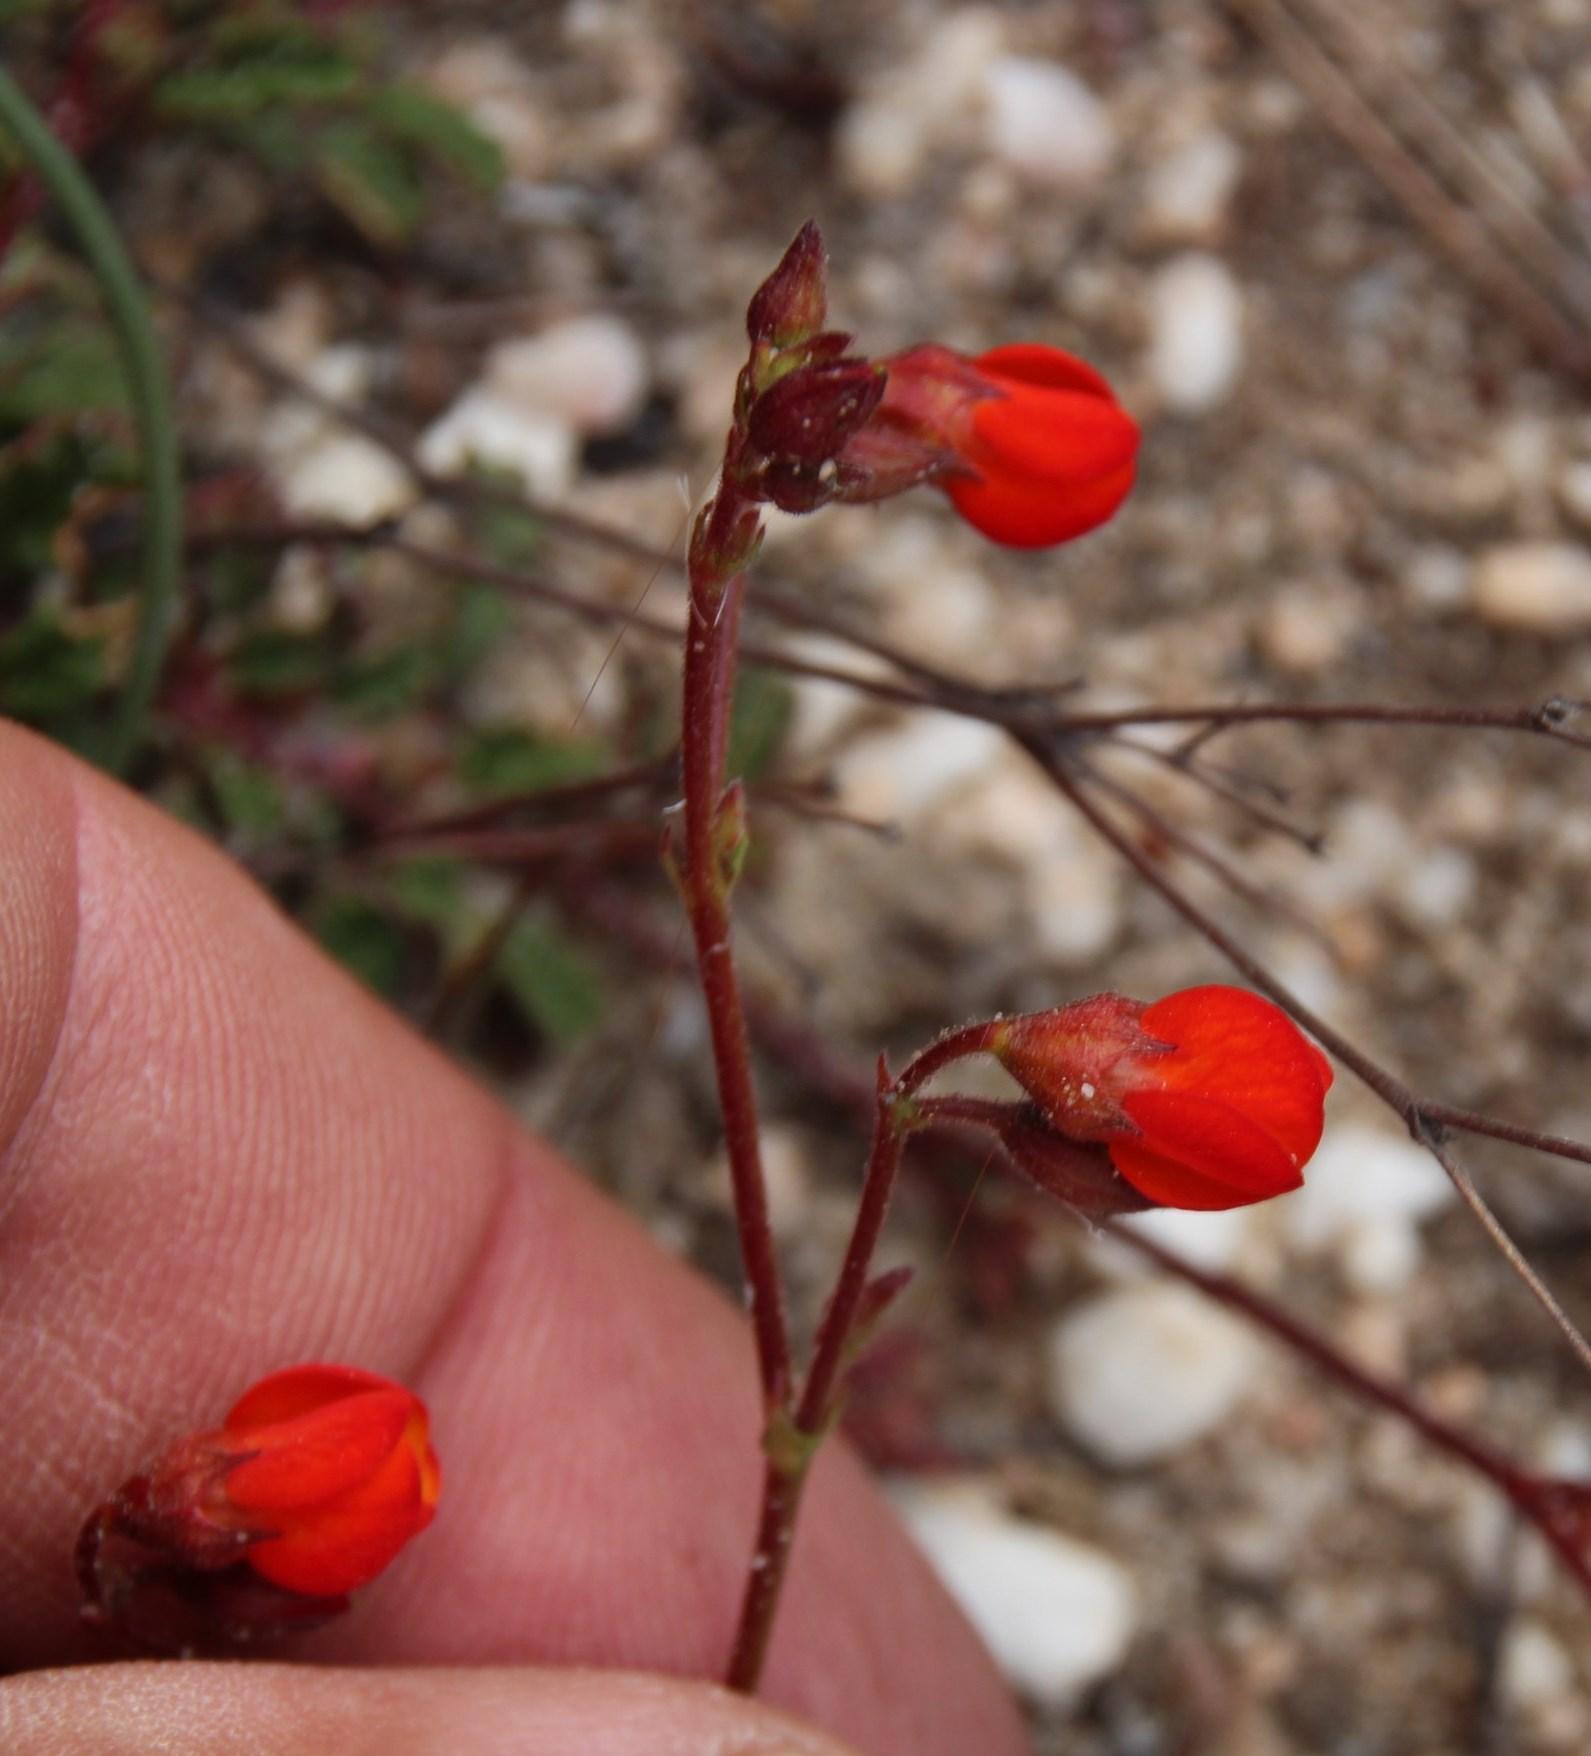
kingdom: Plantae
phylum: Tracheophyta
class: Magnoliopsida
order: Malvales
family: Malvaceae
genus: Hermannia
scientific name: Hermannia muricata
